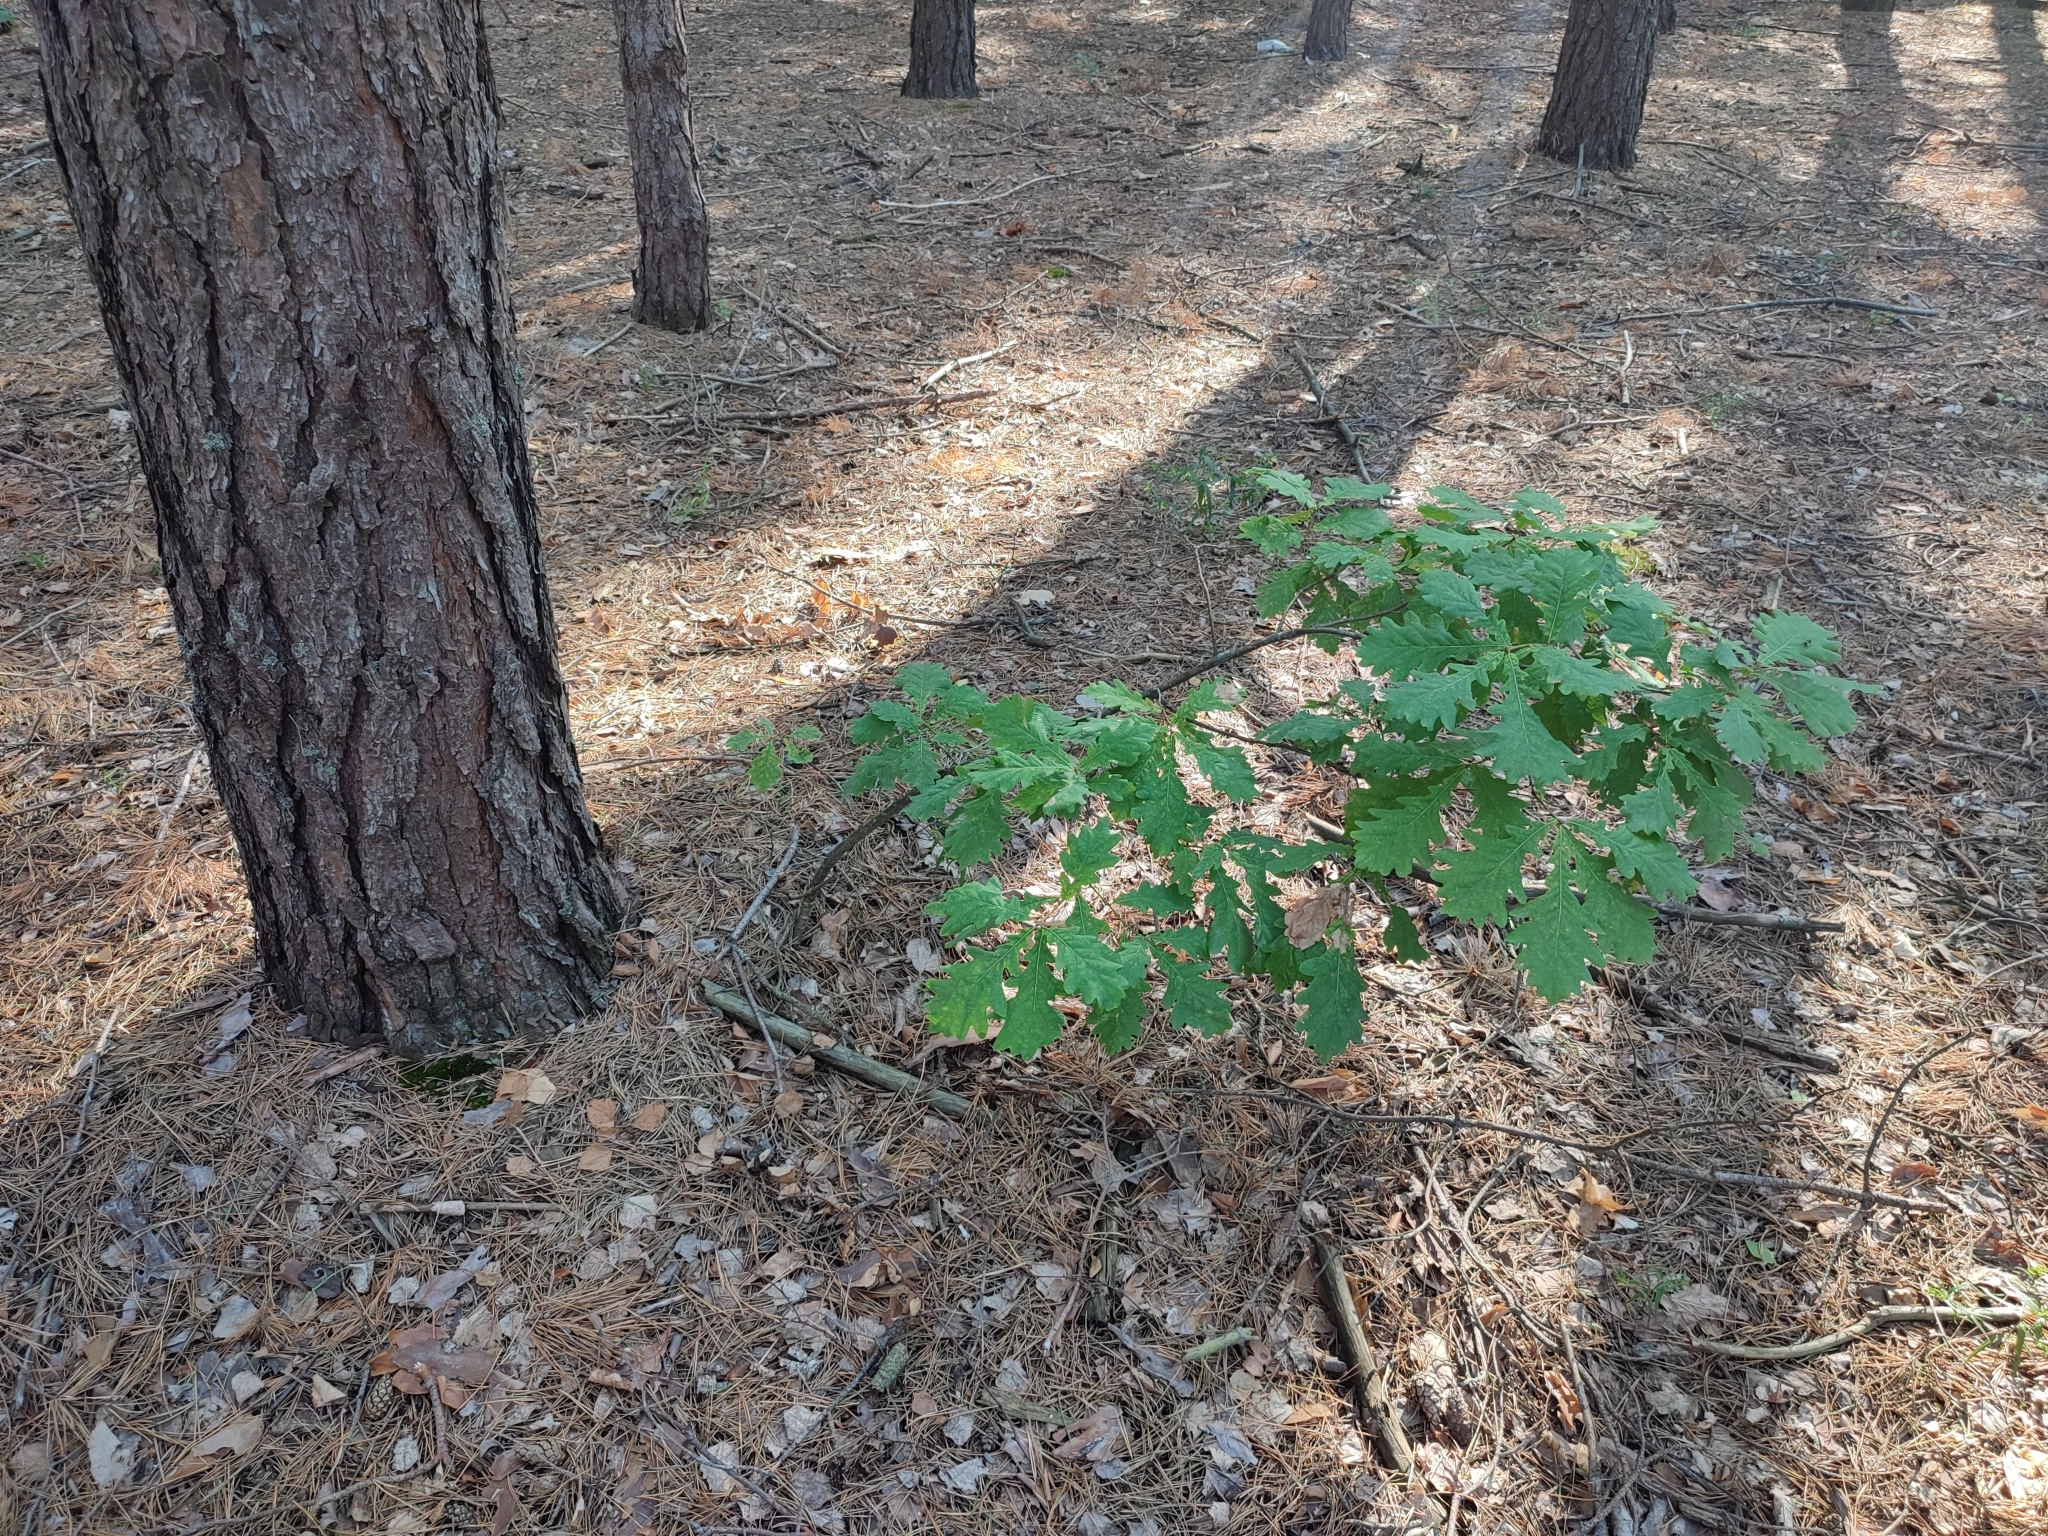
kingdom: Plantae
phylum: Tracheophyta
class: Magnoliopsida
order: Fagales
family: Fagaceae
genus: Quercus
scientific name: Quercus robur
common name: Pedunculate oak
